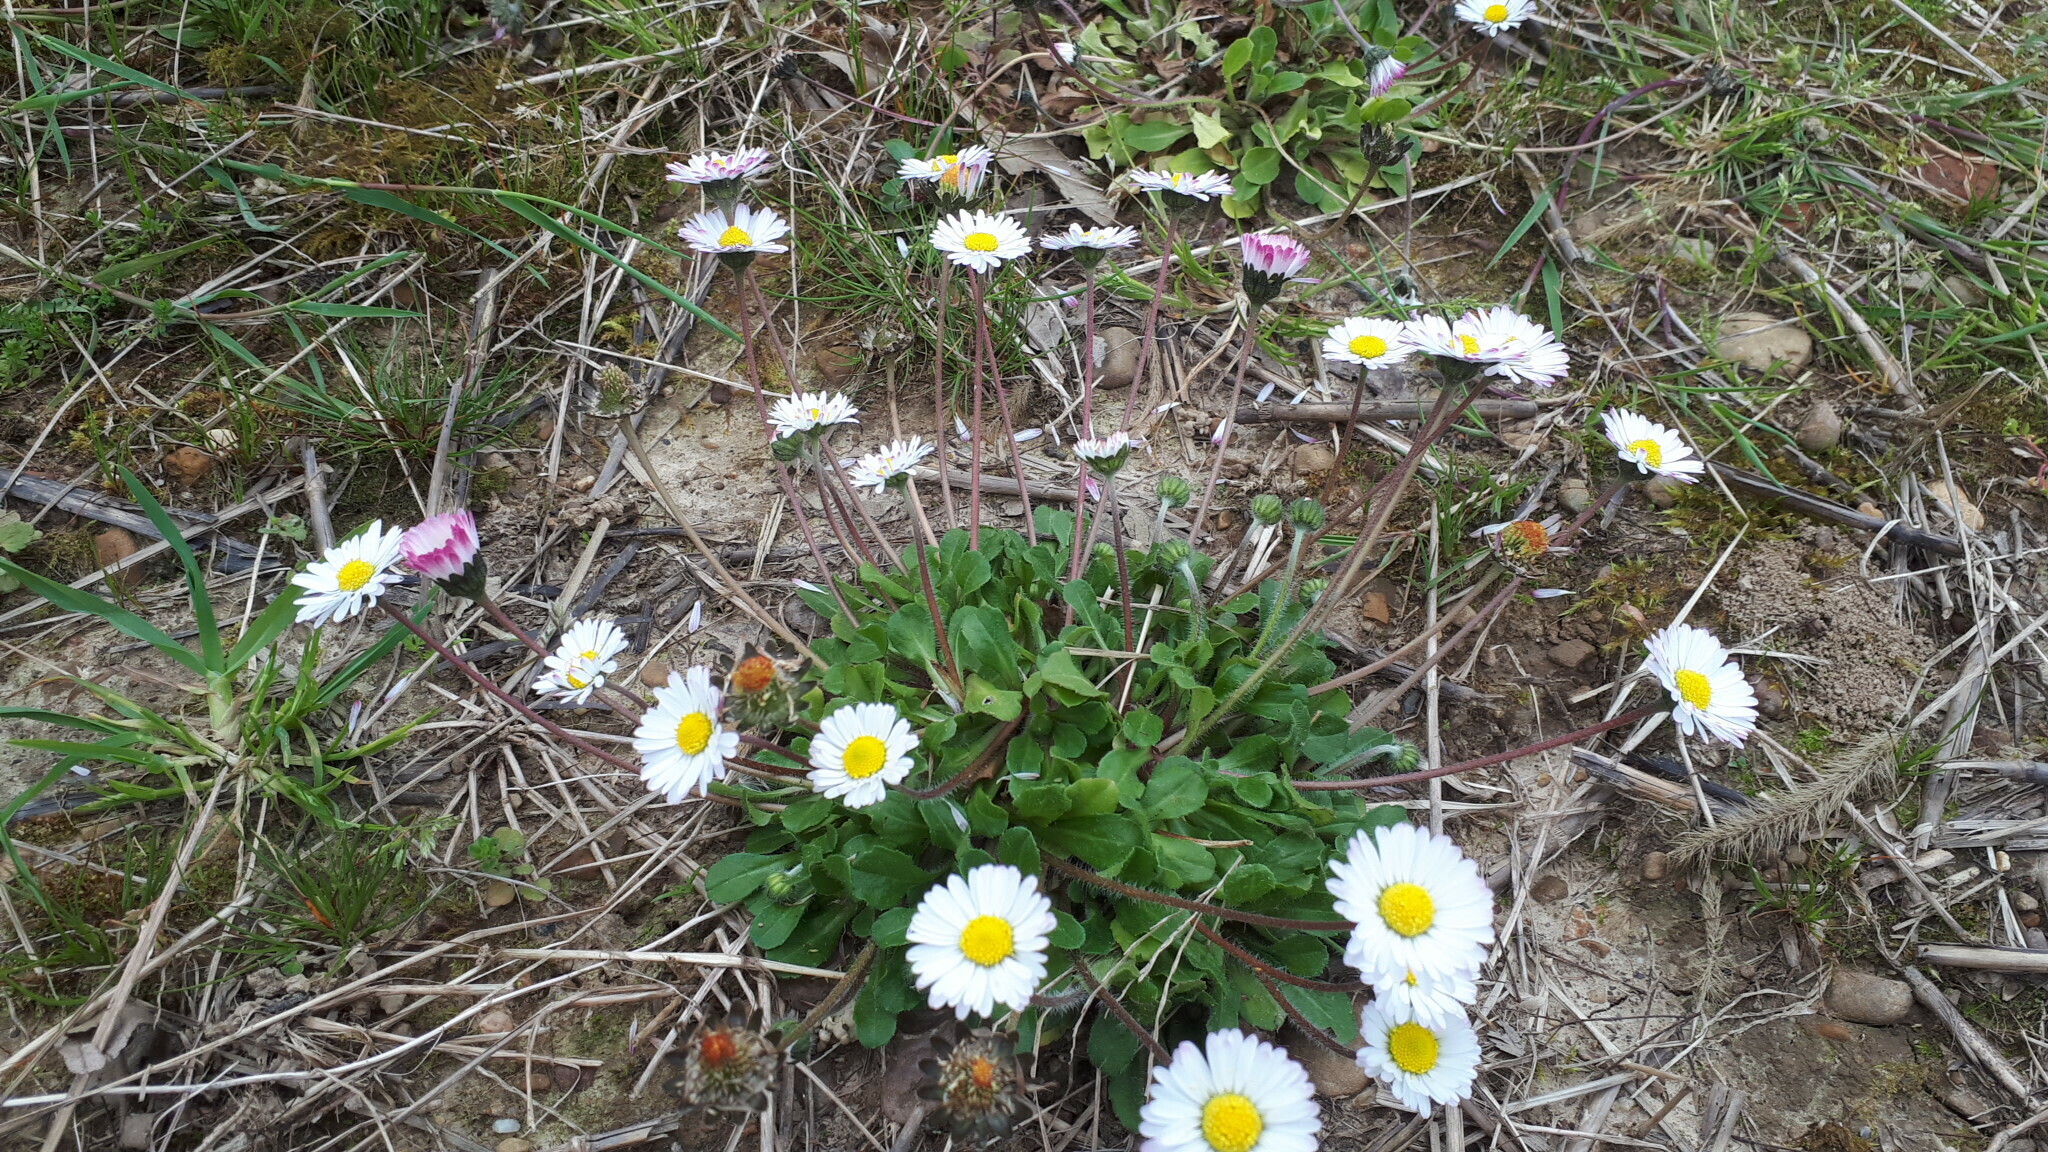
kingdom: Plantae
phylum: Tracheophyta
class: Magnoliopsida
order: Asterales
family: Asteraceae
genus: Bellis
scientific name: Bellis perennis
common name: Lawndaisy
